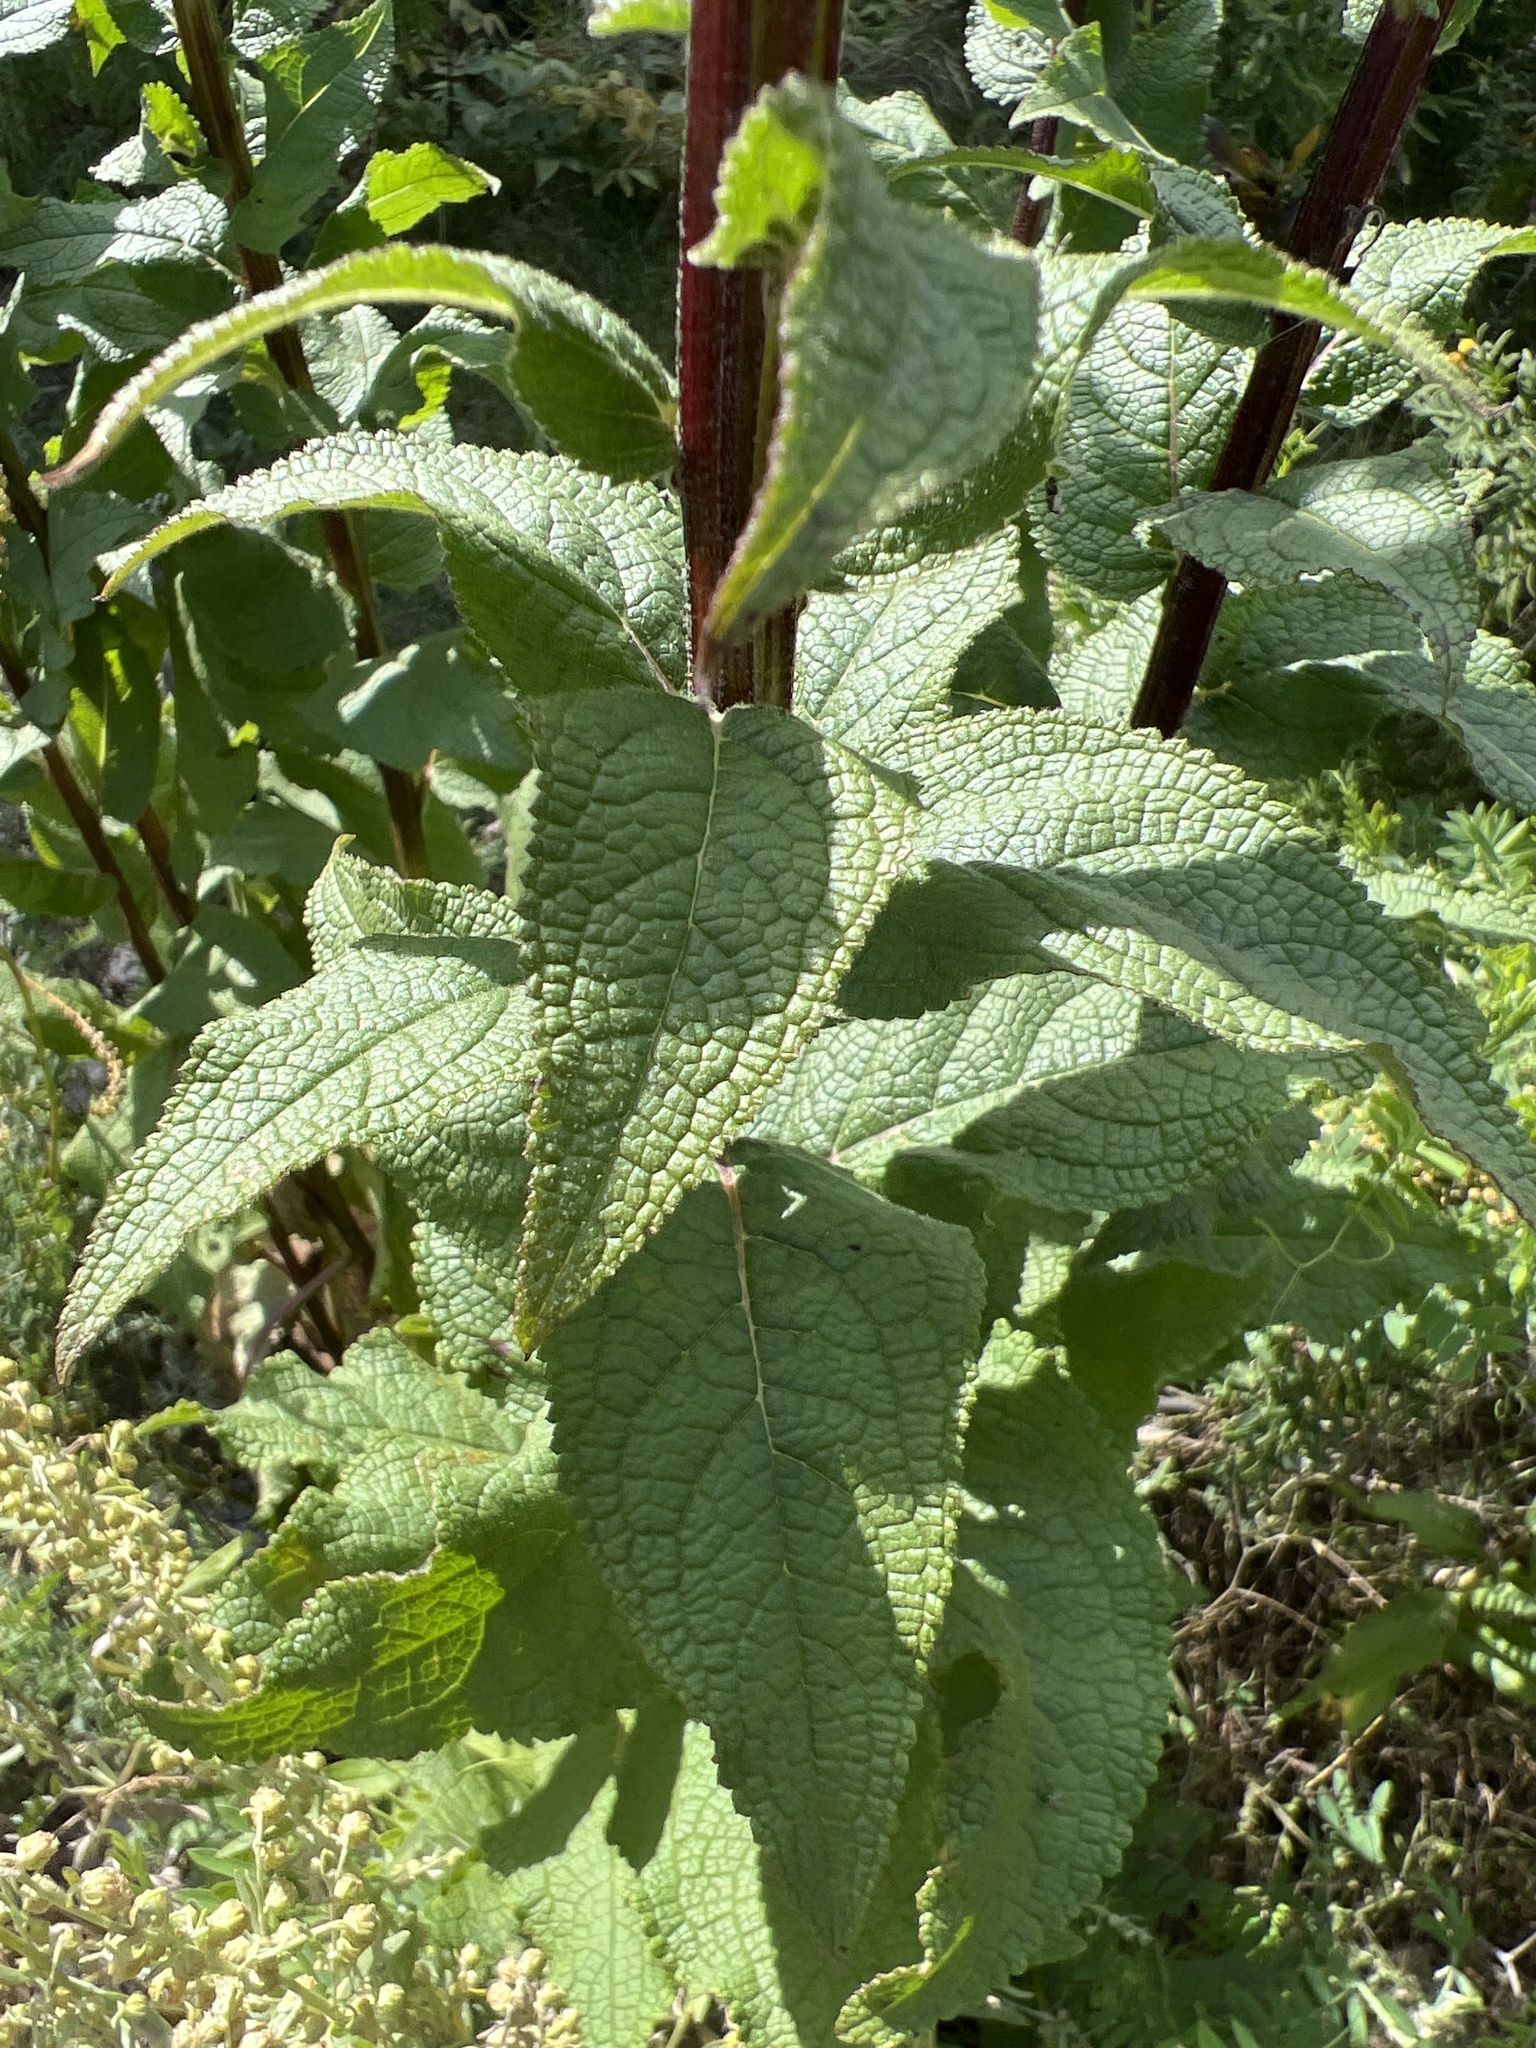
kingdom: Plantae
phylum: Tracheophyta
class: Magnoliopsida
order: Lamiales
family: Scrophulariaceae
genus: Verbascum
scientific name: Verbascum nigrum
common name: Dark mullein
